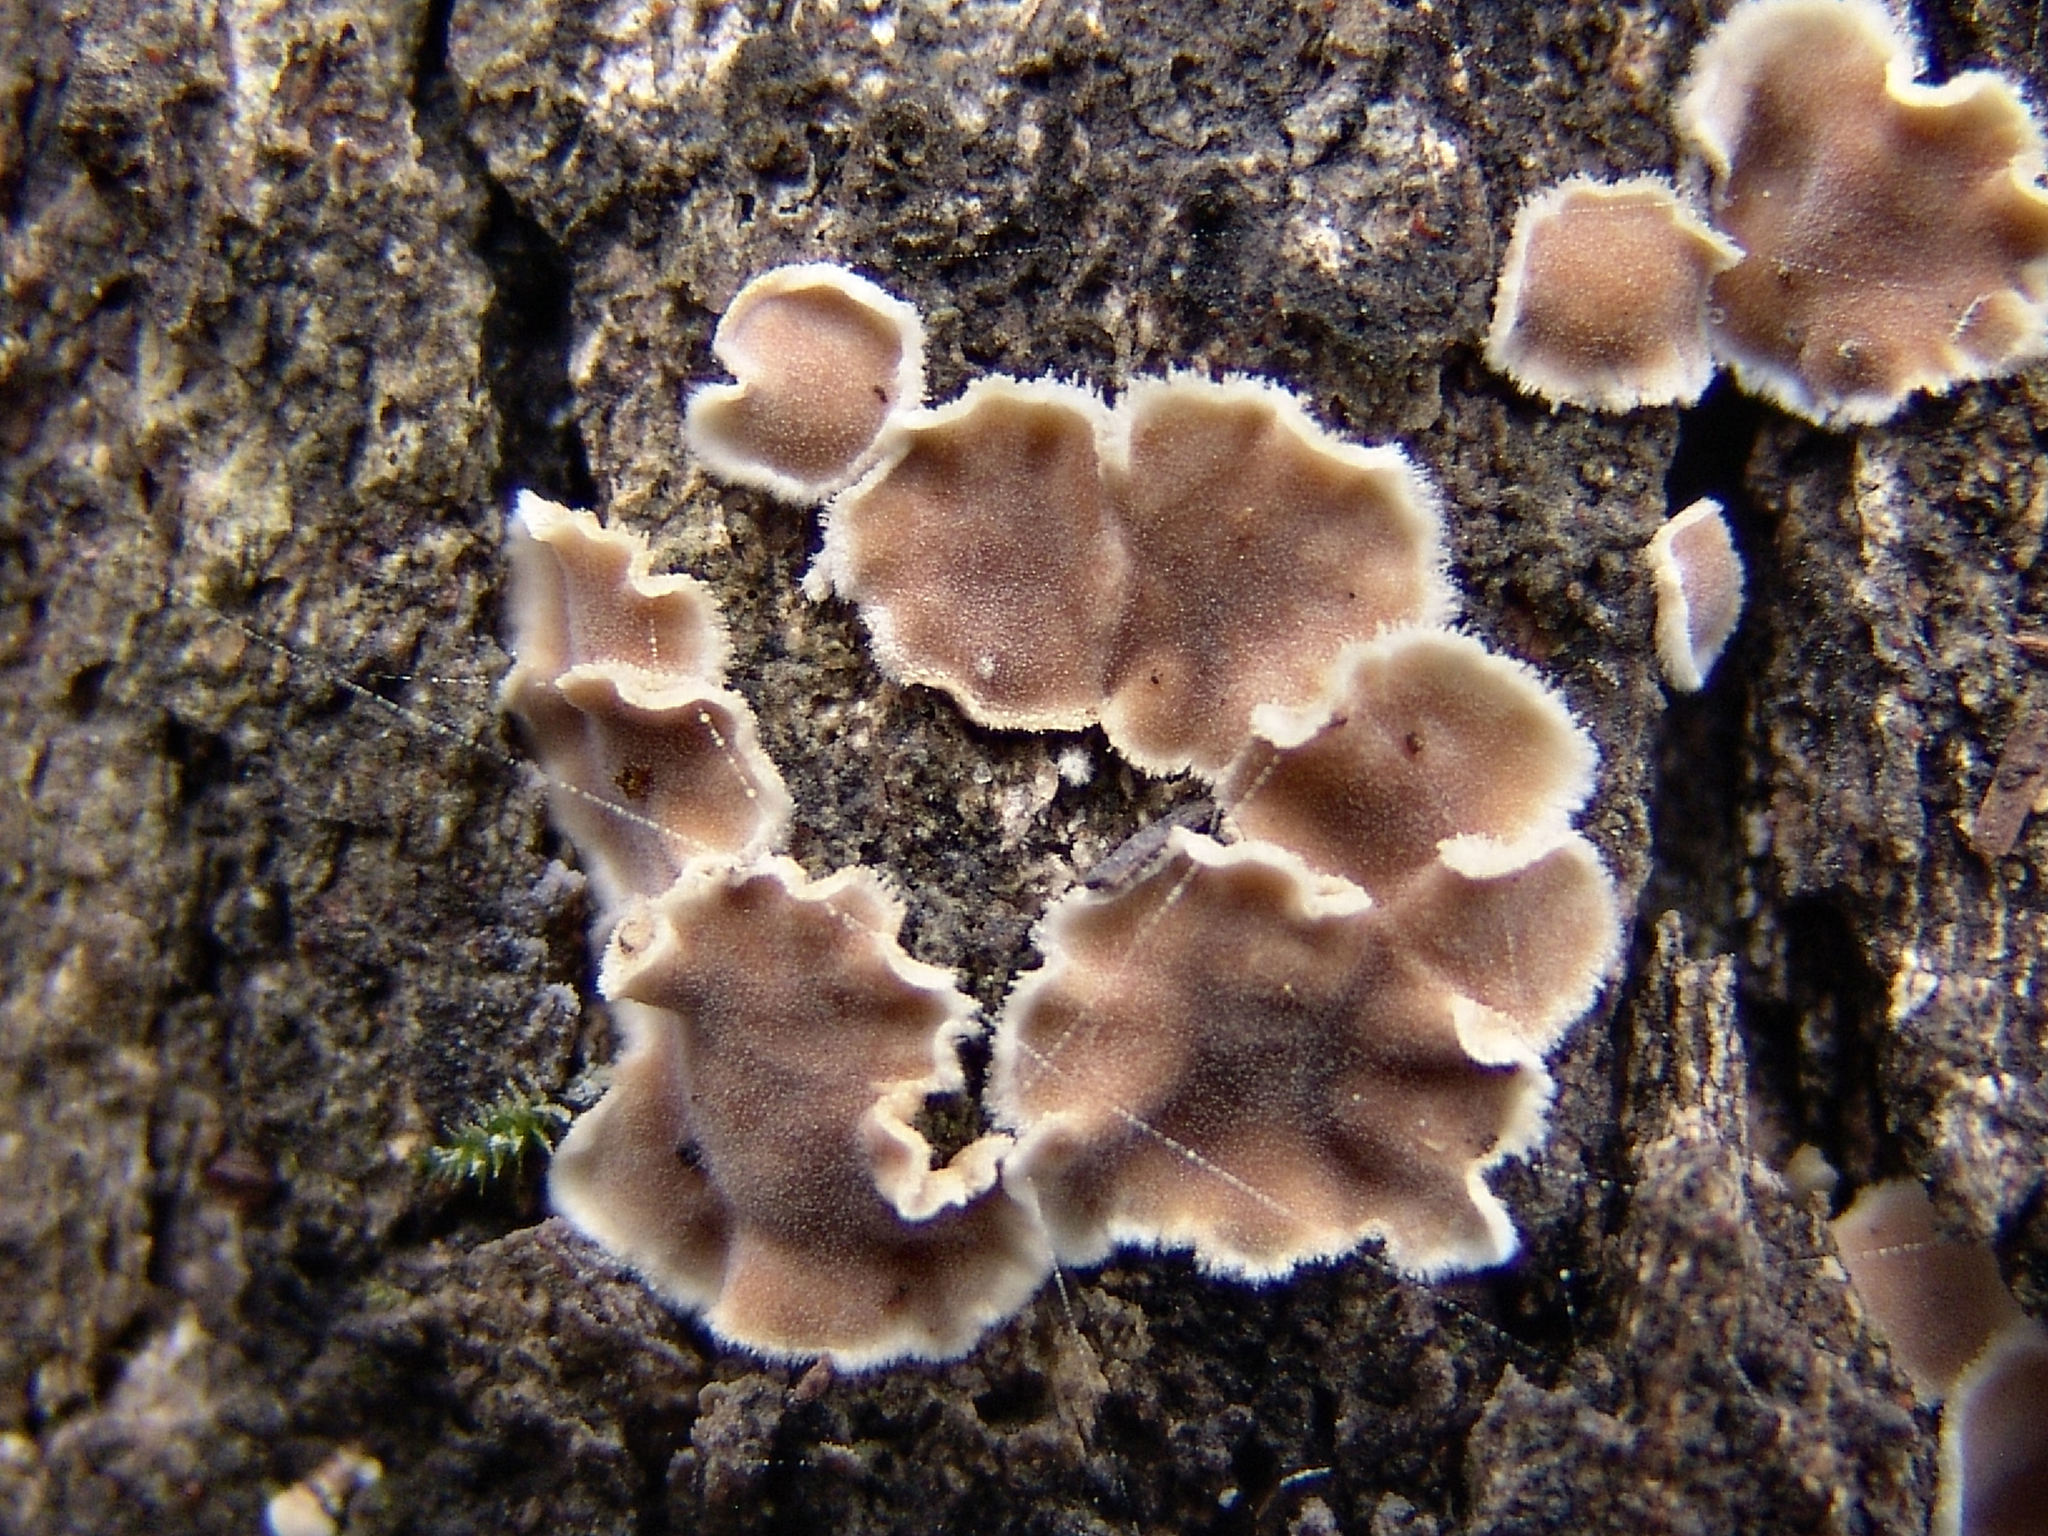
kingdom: Fungi
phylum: Basidiomycota
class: Agaricomycetes
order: Russulales
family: Stereaceae
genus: Acanthophysium
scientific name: Acanthophysium oakesii
